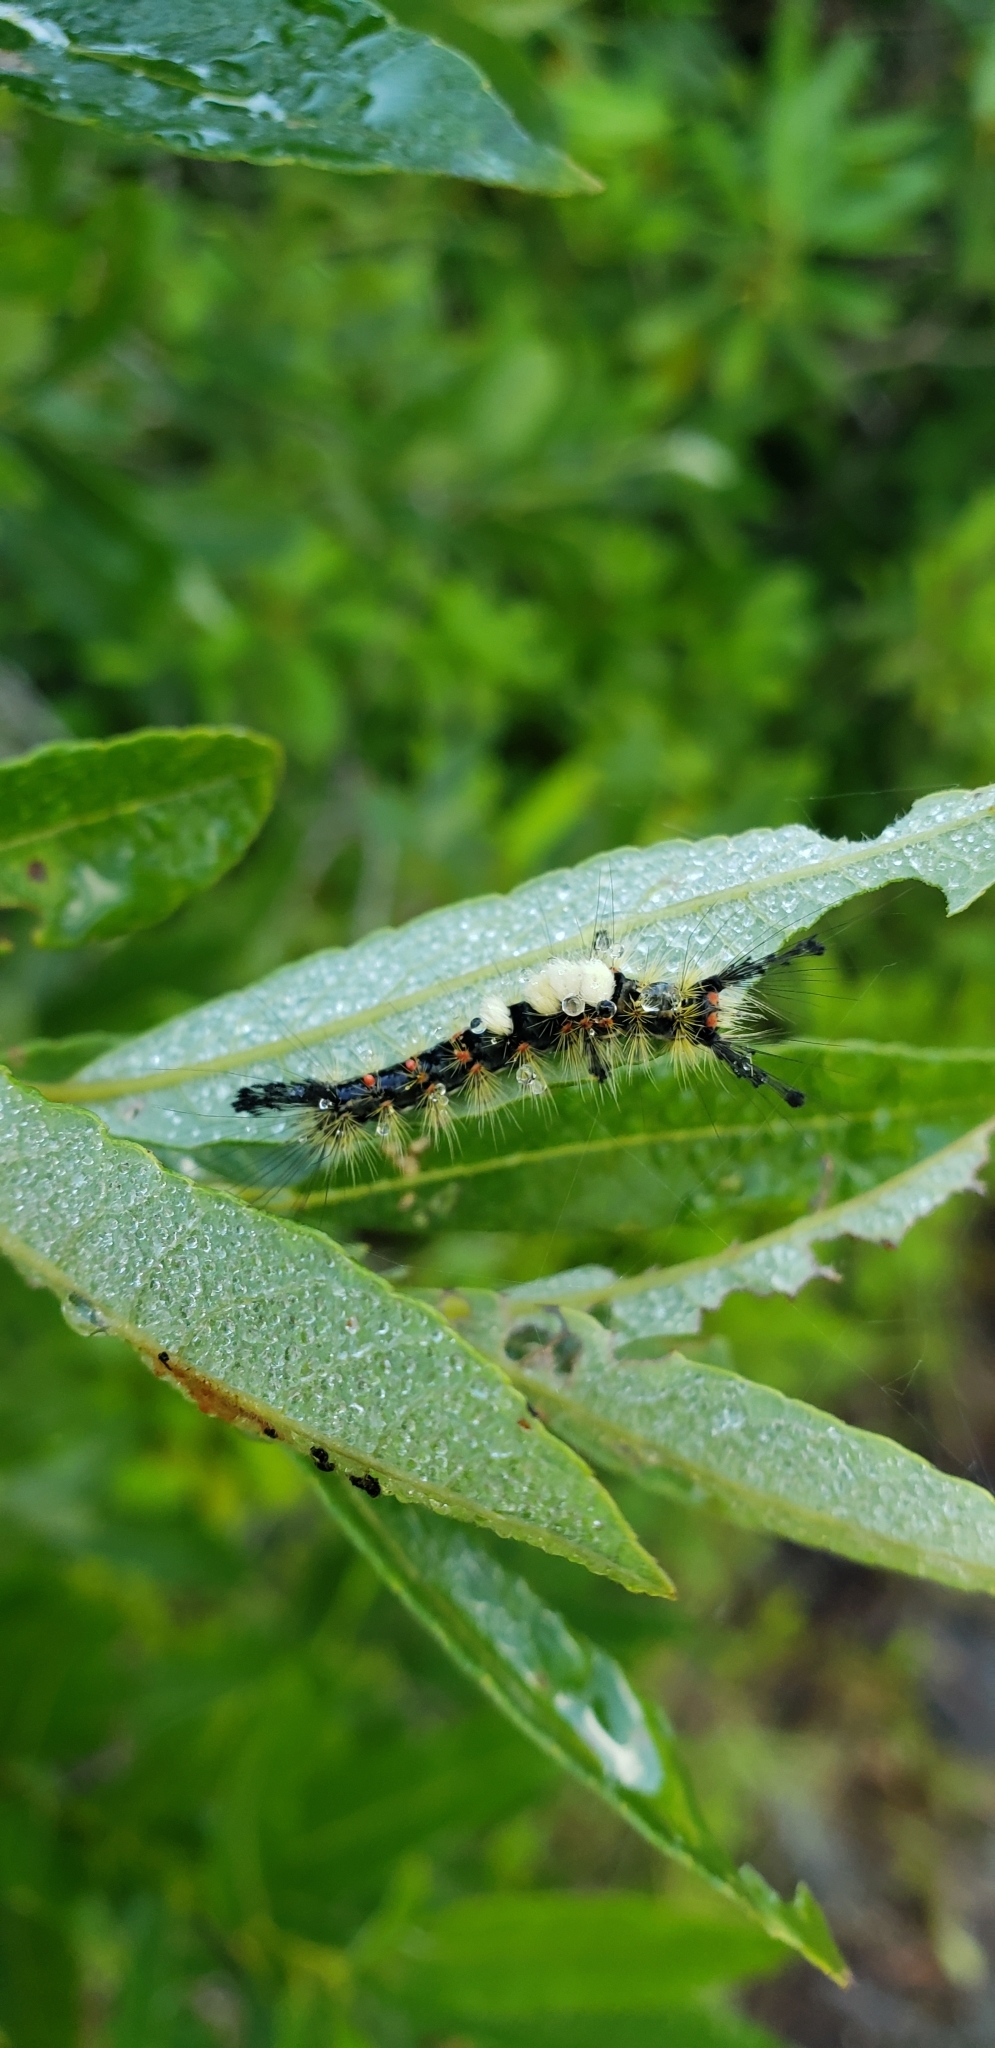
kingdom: Animalia
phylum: Arthropoda
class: Insecta
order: Lepidoptera
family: Erebidae
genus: Orgyia
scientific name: Orgyia antiqua
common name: Vapourer
